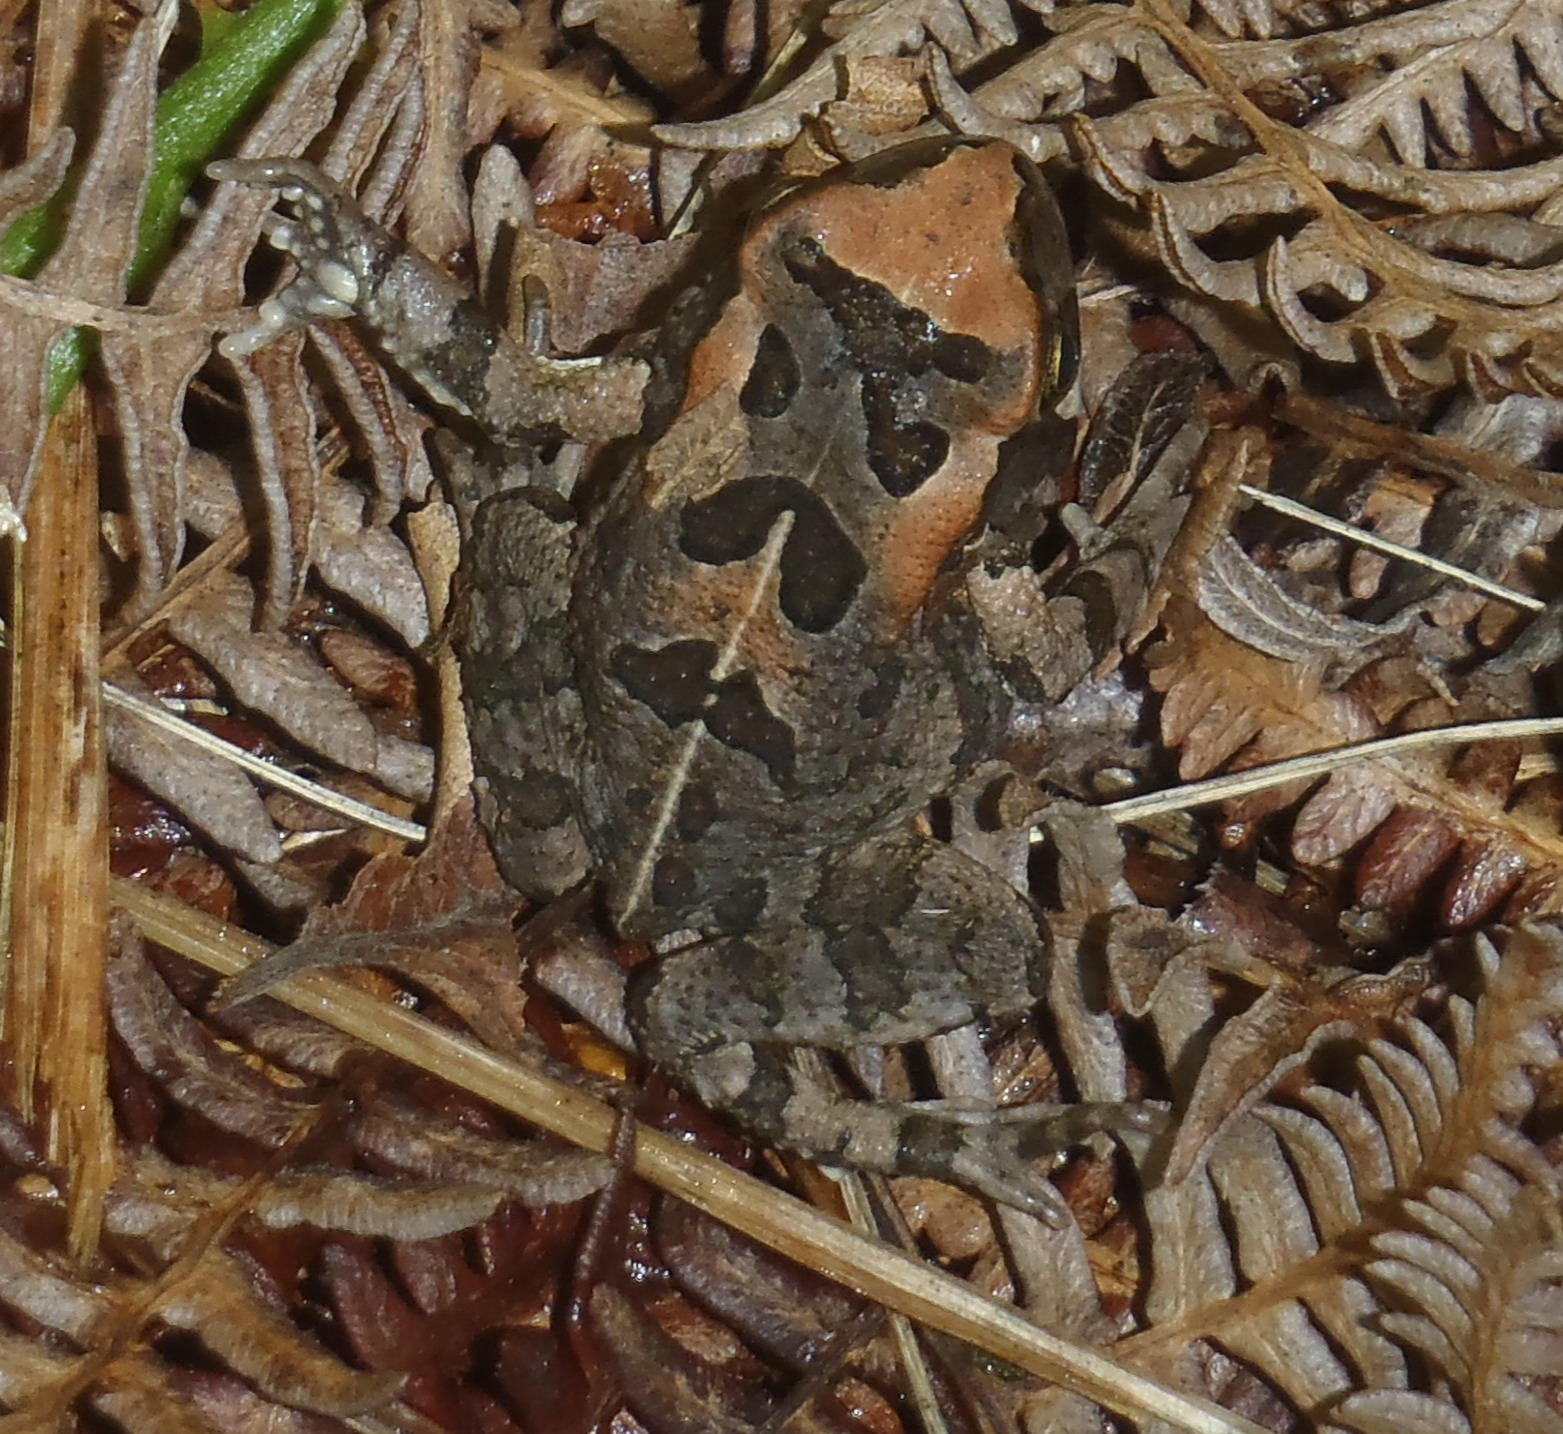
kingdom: Animalia
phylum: Chordata
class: Amphibia
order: Anura
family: Bufonidae
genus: Sclerophrys
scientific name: Sclerophrys capensis
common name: Ranger’s toad
